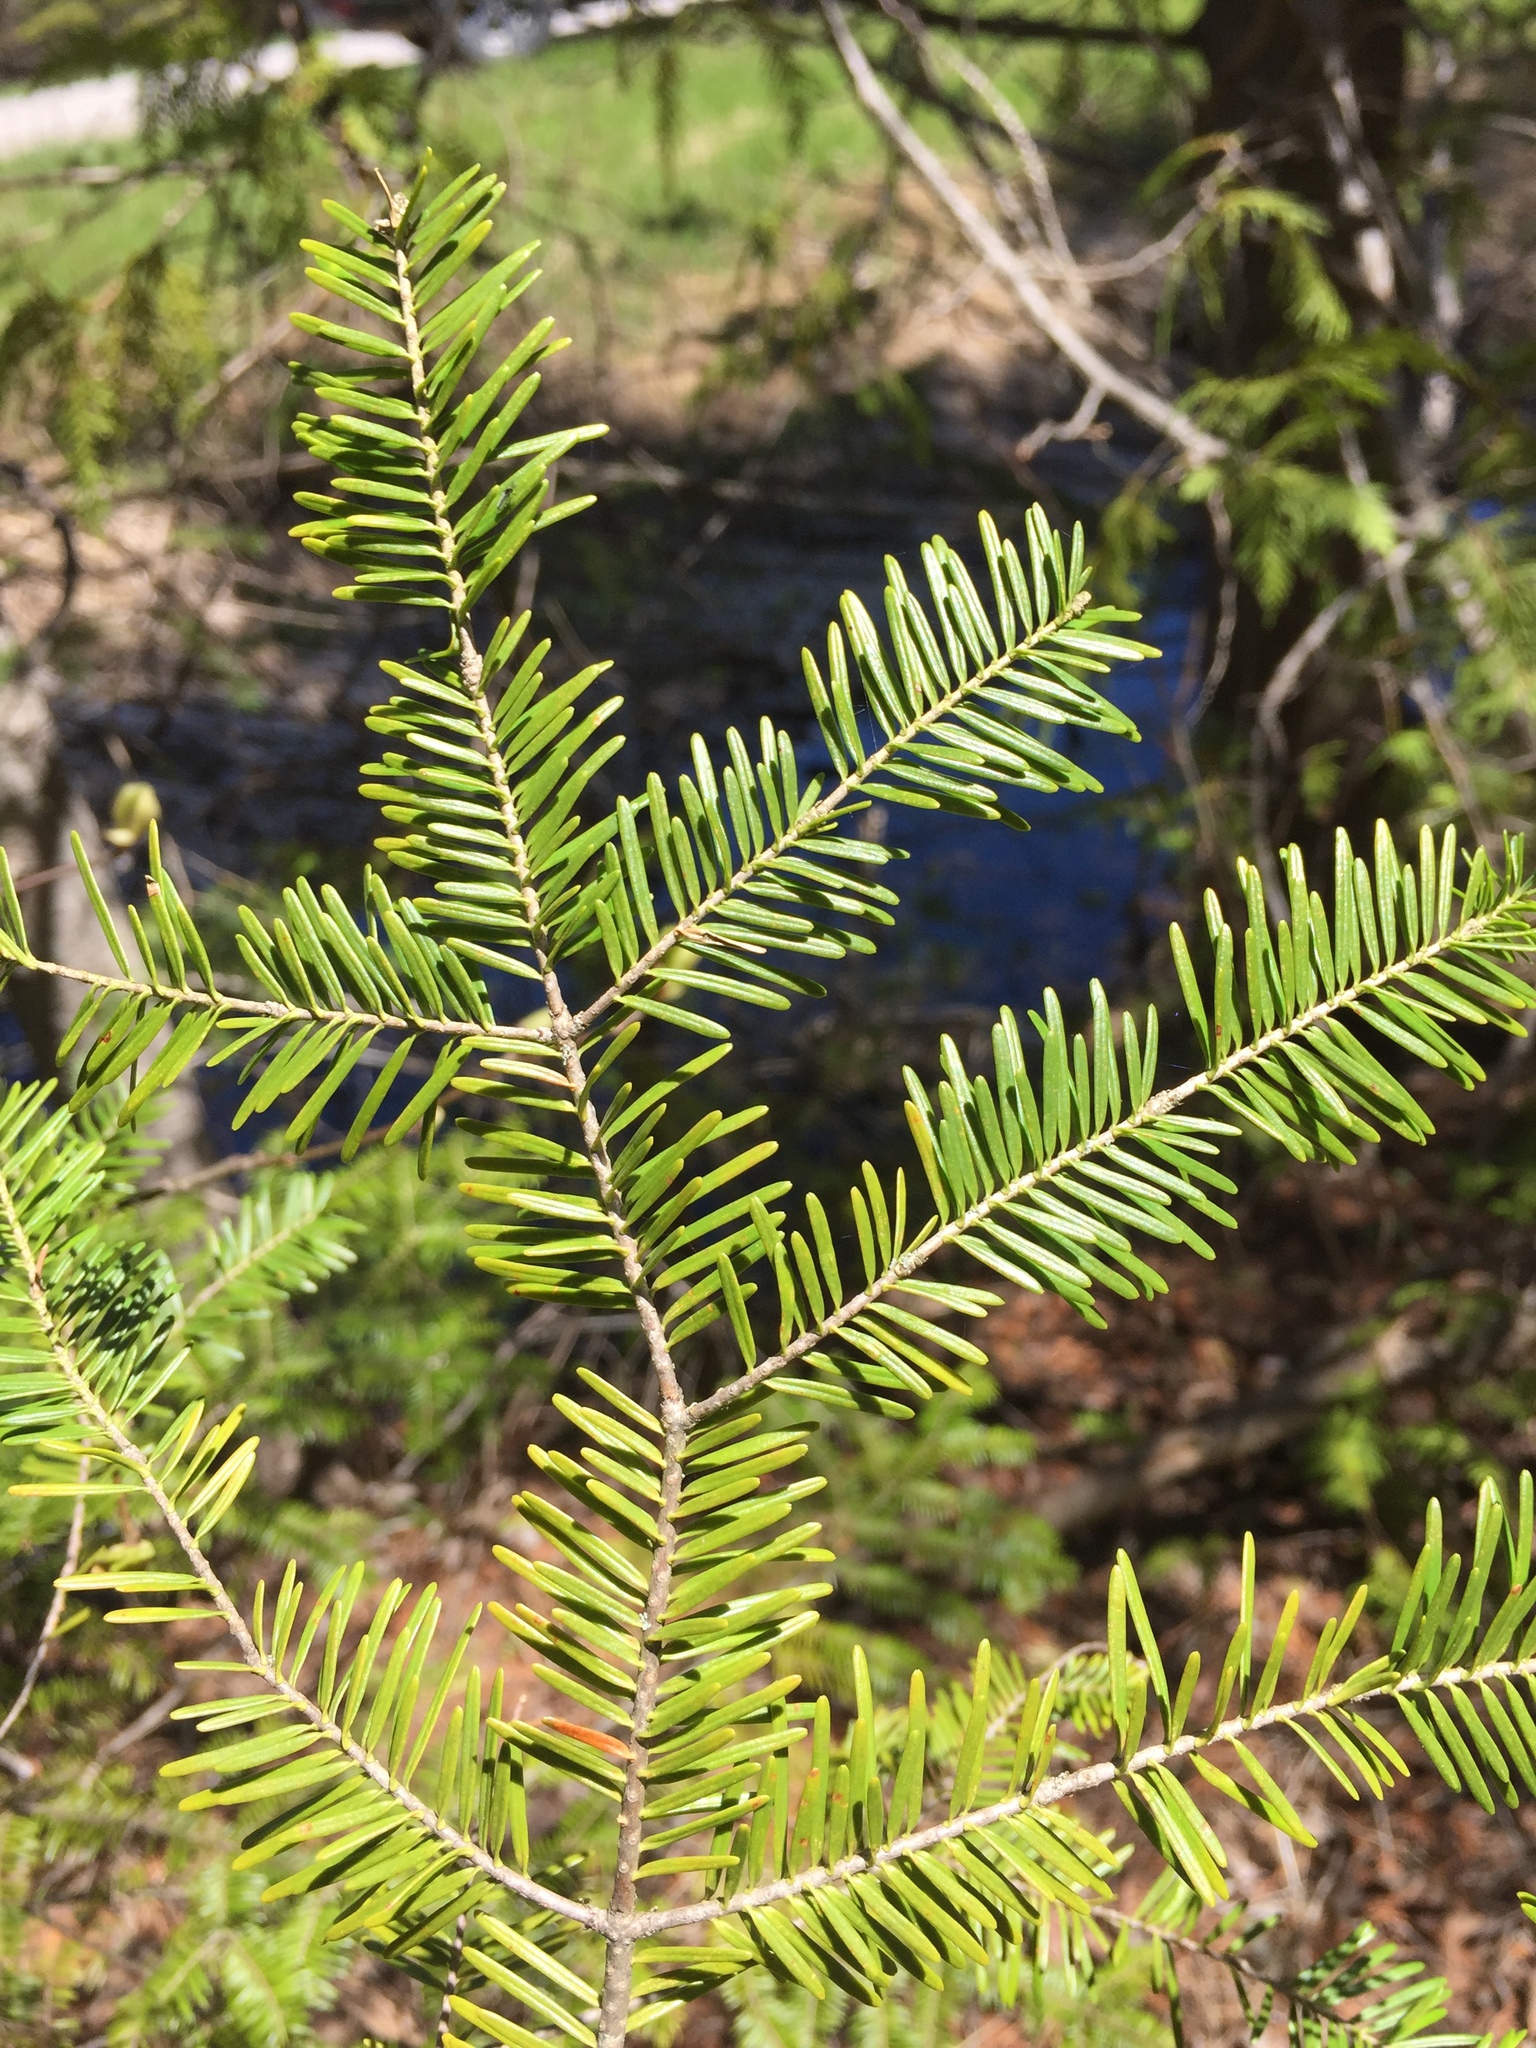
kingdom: Plantae
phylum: Tracheophyta
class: Pinopsida
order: Pinales
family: Pinaceae
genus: Abies
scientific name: Abies balsamea
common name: Balsam fir
